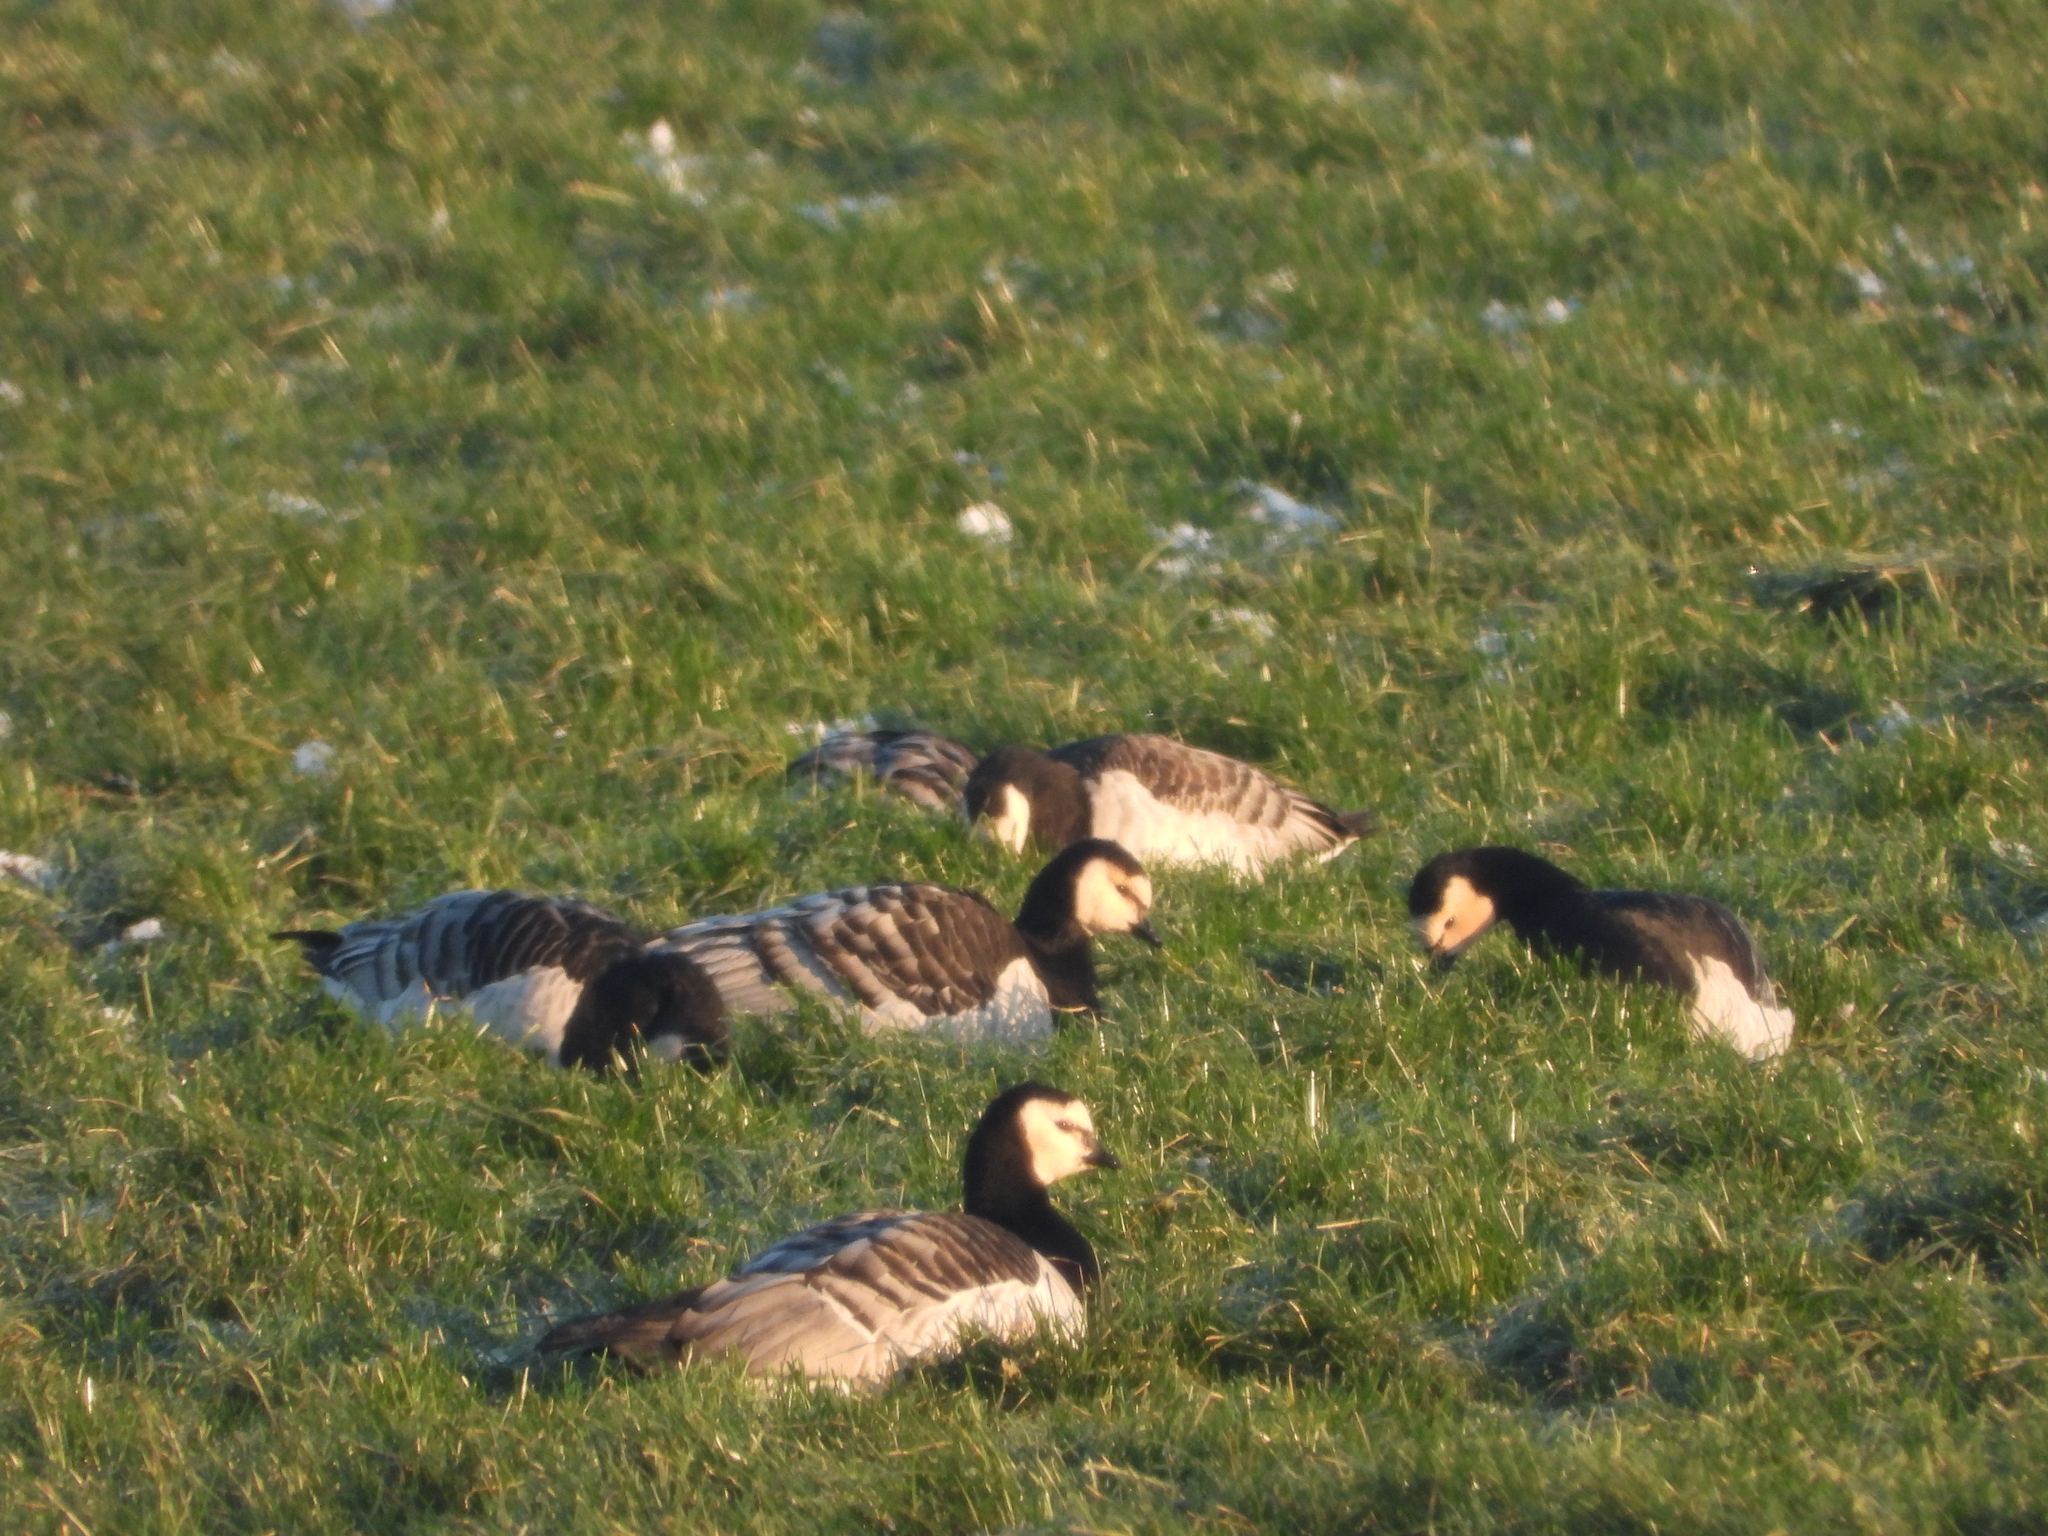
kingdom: Animalia
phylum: Chordata
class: Aves
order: Anseriformes
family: Anatidae
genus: Branta
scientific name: Branta leucopsis
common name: Barnacle goose
